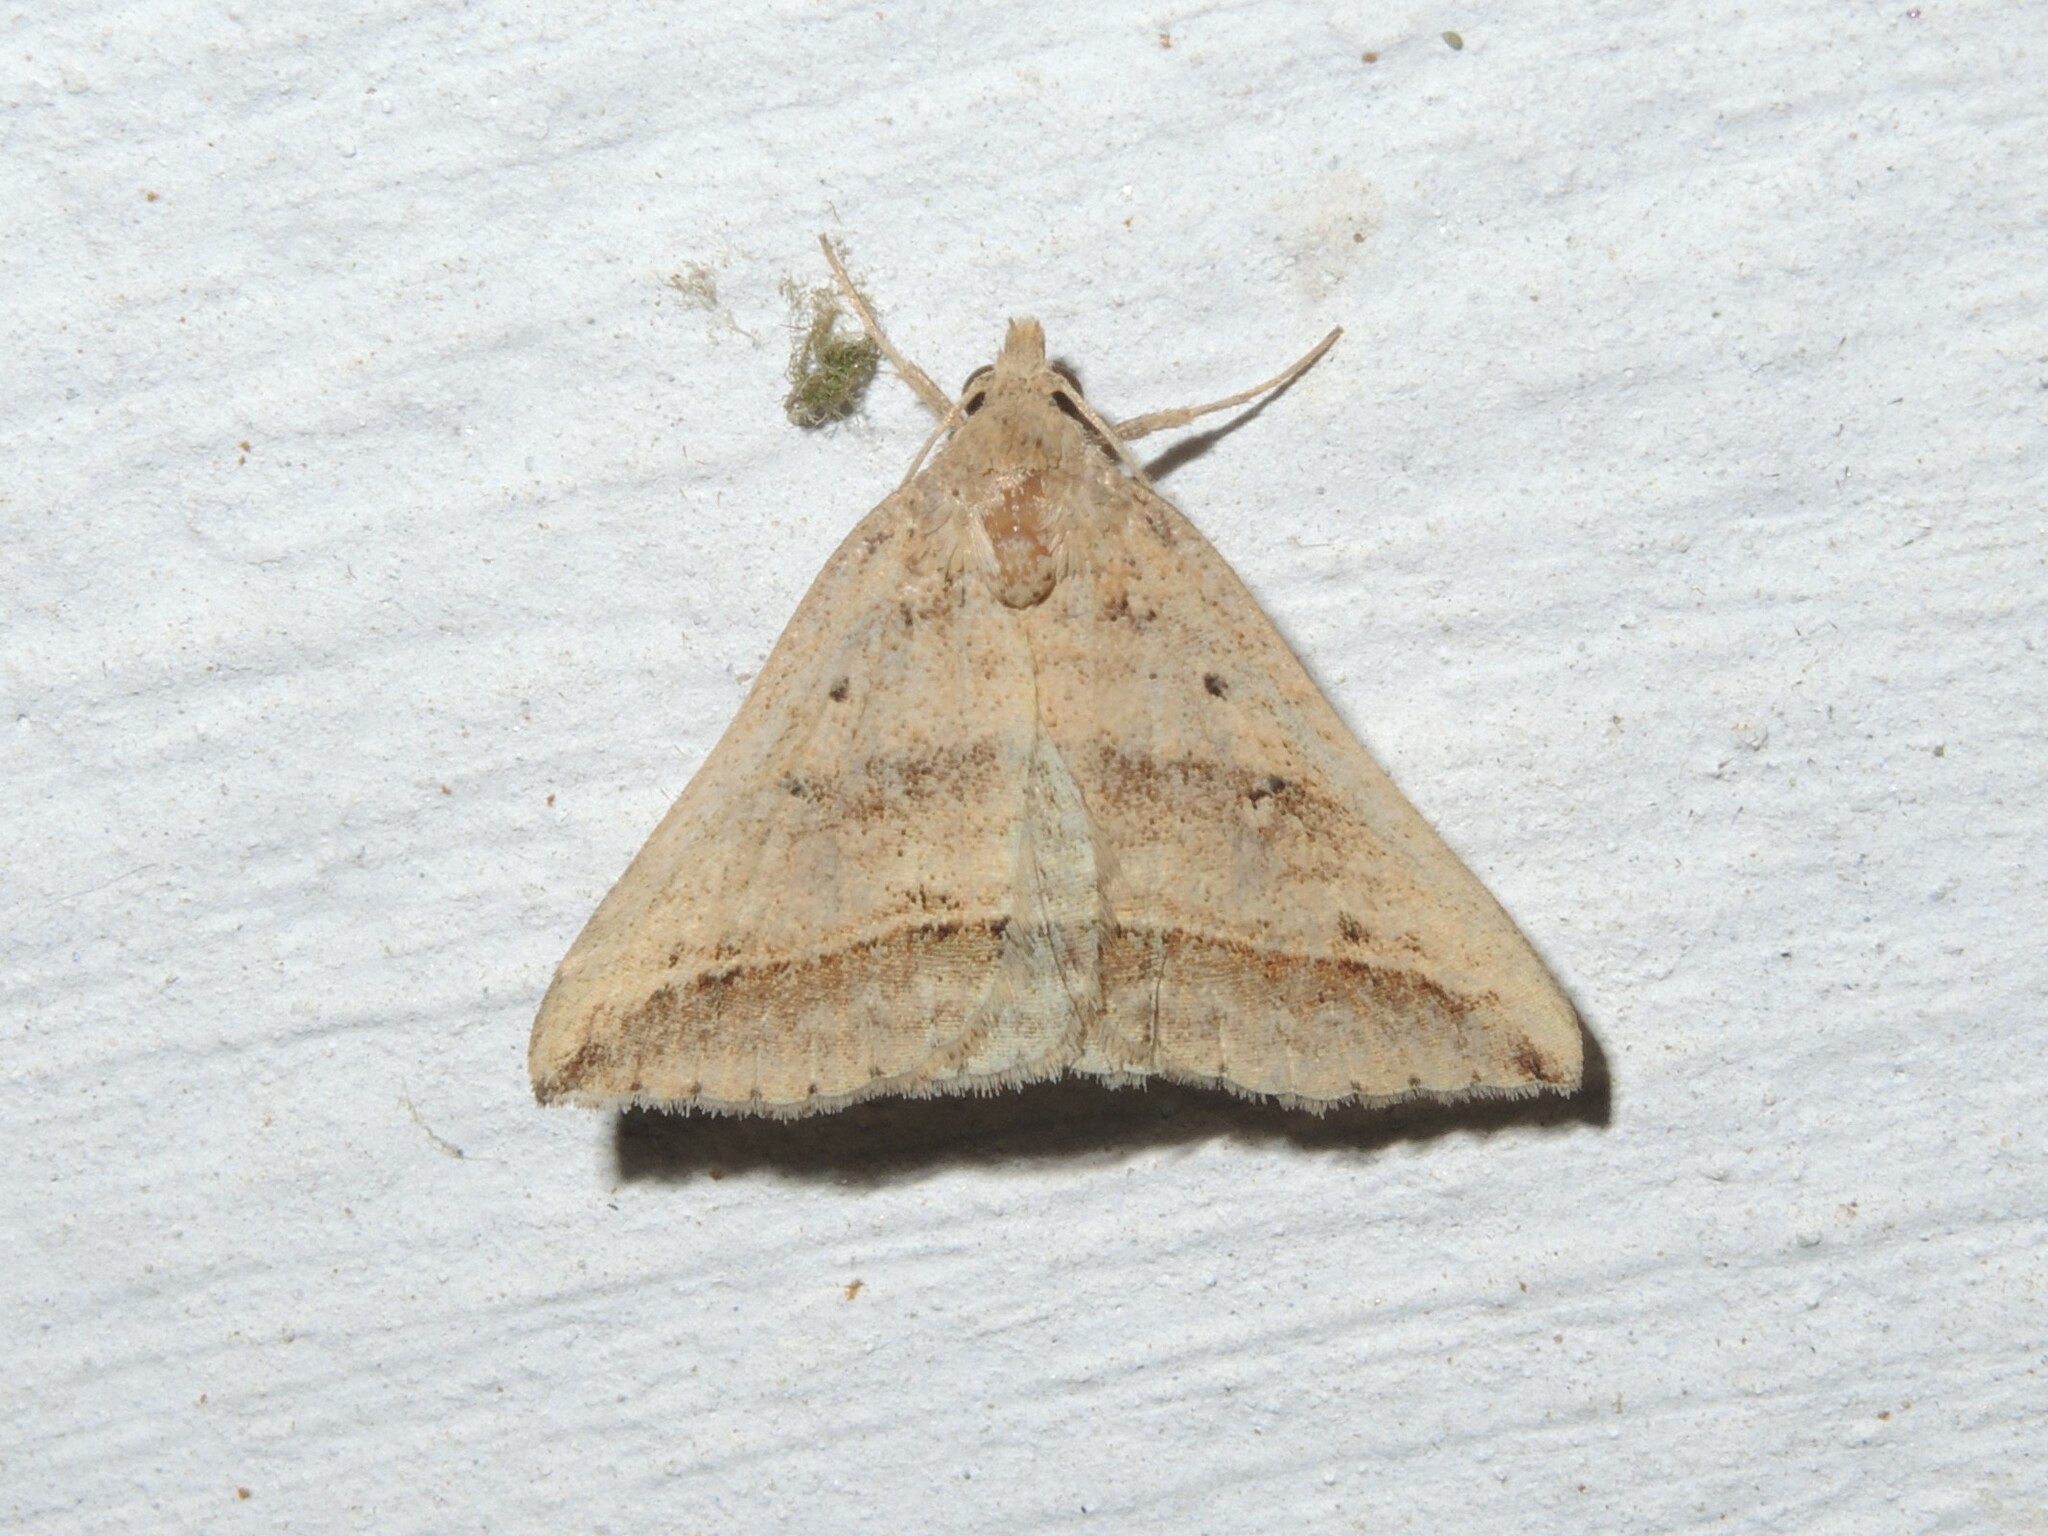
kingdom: Animalia
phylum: Arthropoda
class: Insecta
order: Lepidoptera
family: Erebidae
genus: Loxioda
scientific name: Loxioda similis
